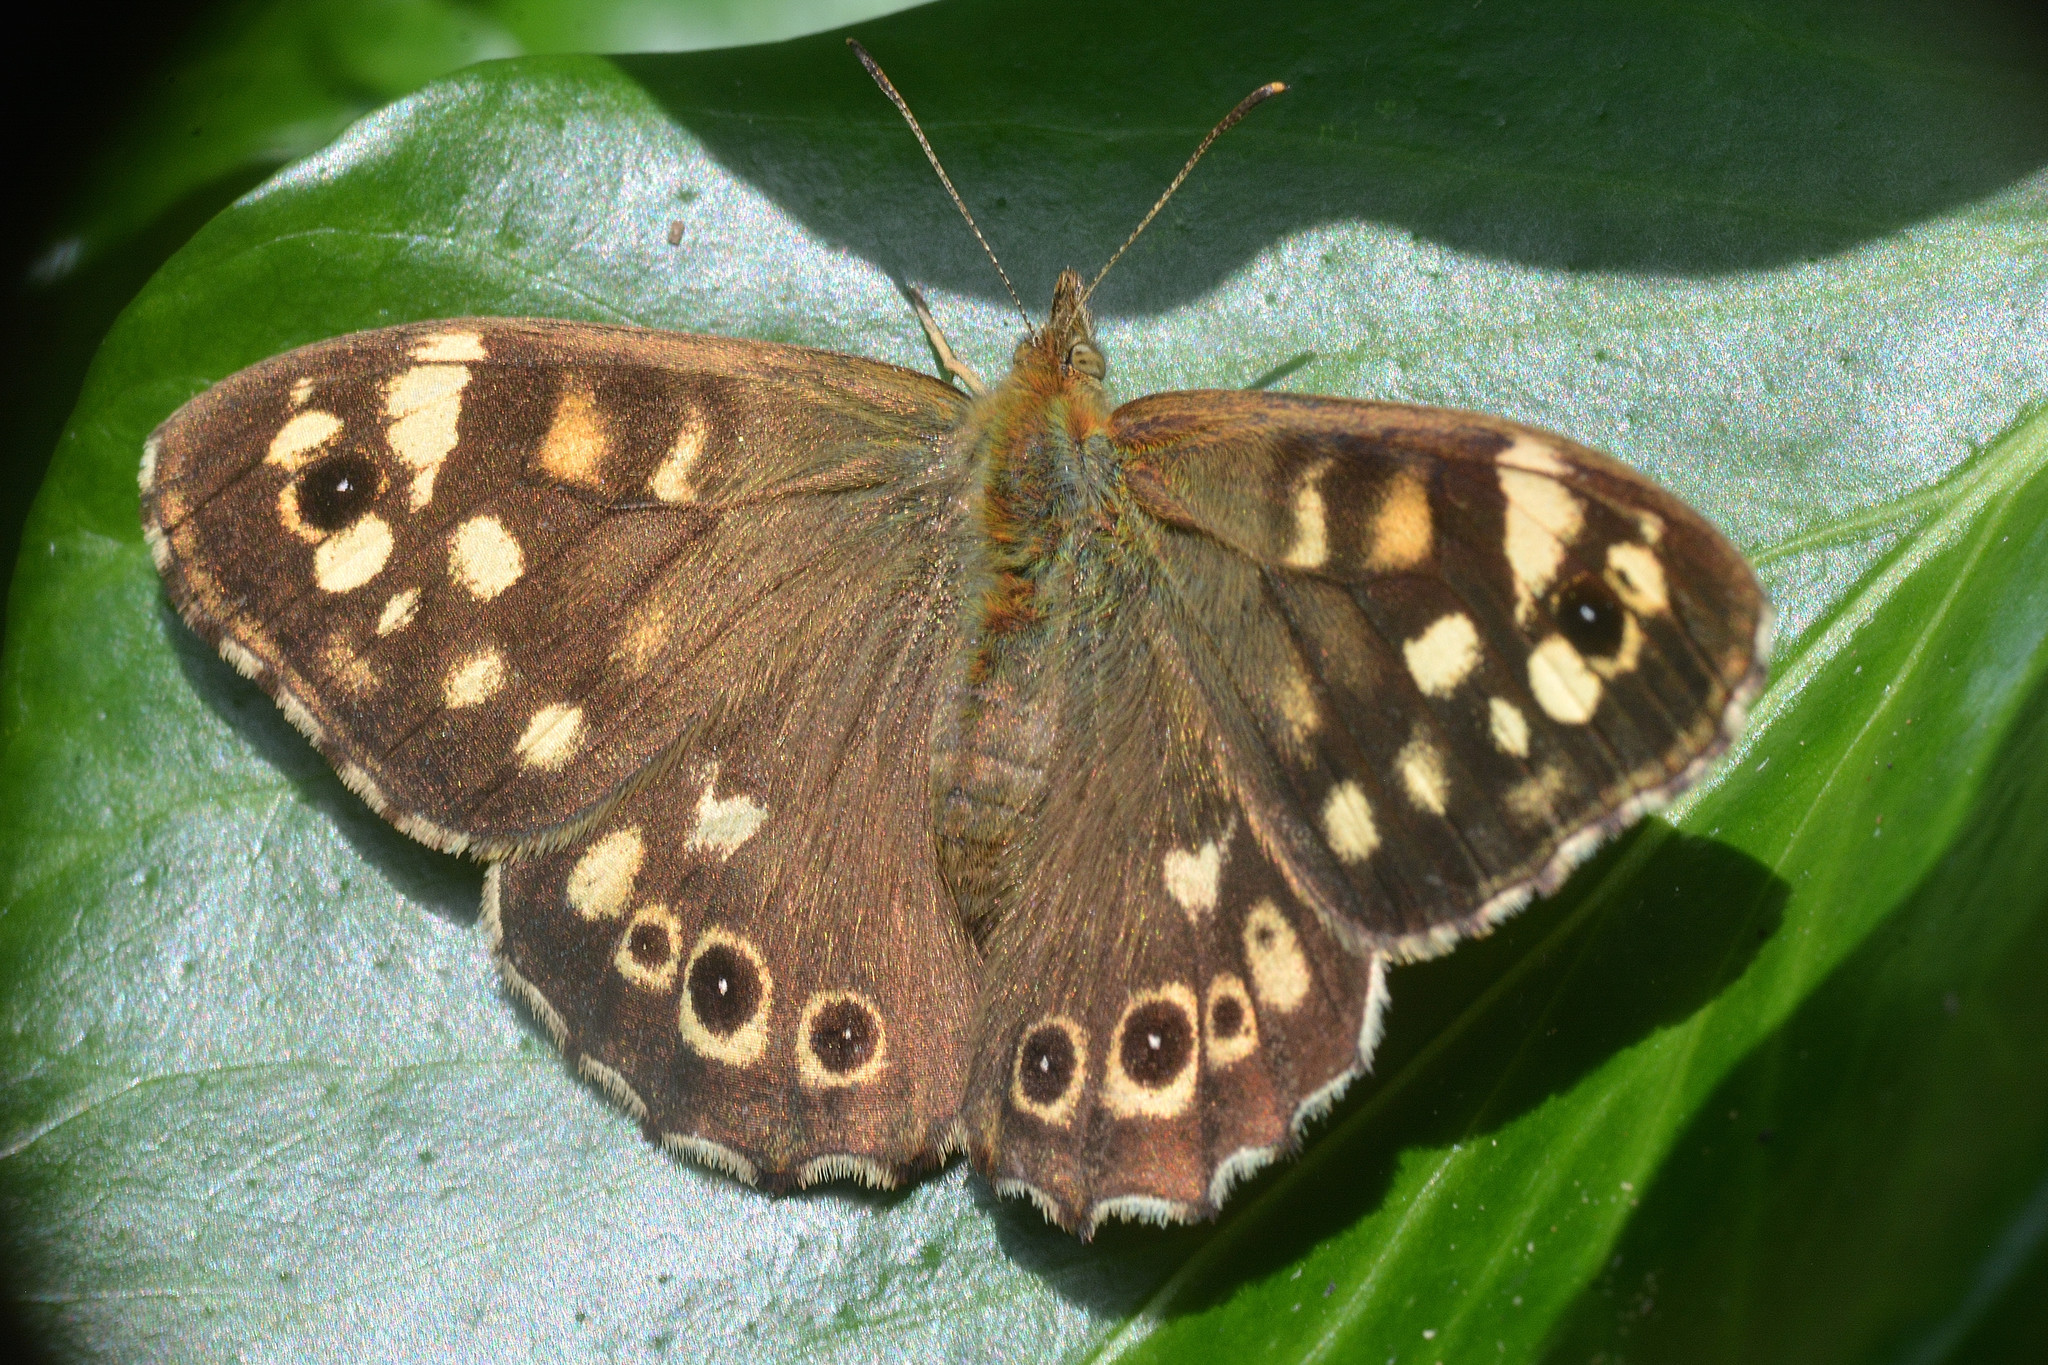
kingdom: Animalia
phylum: Arthropoda
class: Insecta
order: Lepidoptera
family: Nymphalidae
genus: Pararge
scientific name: Pararge aegeria
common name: Speckled wood
